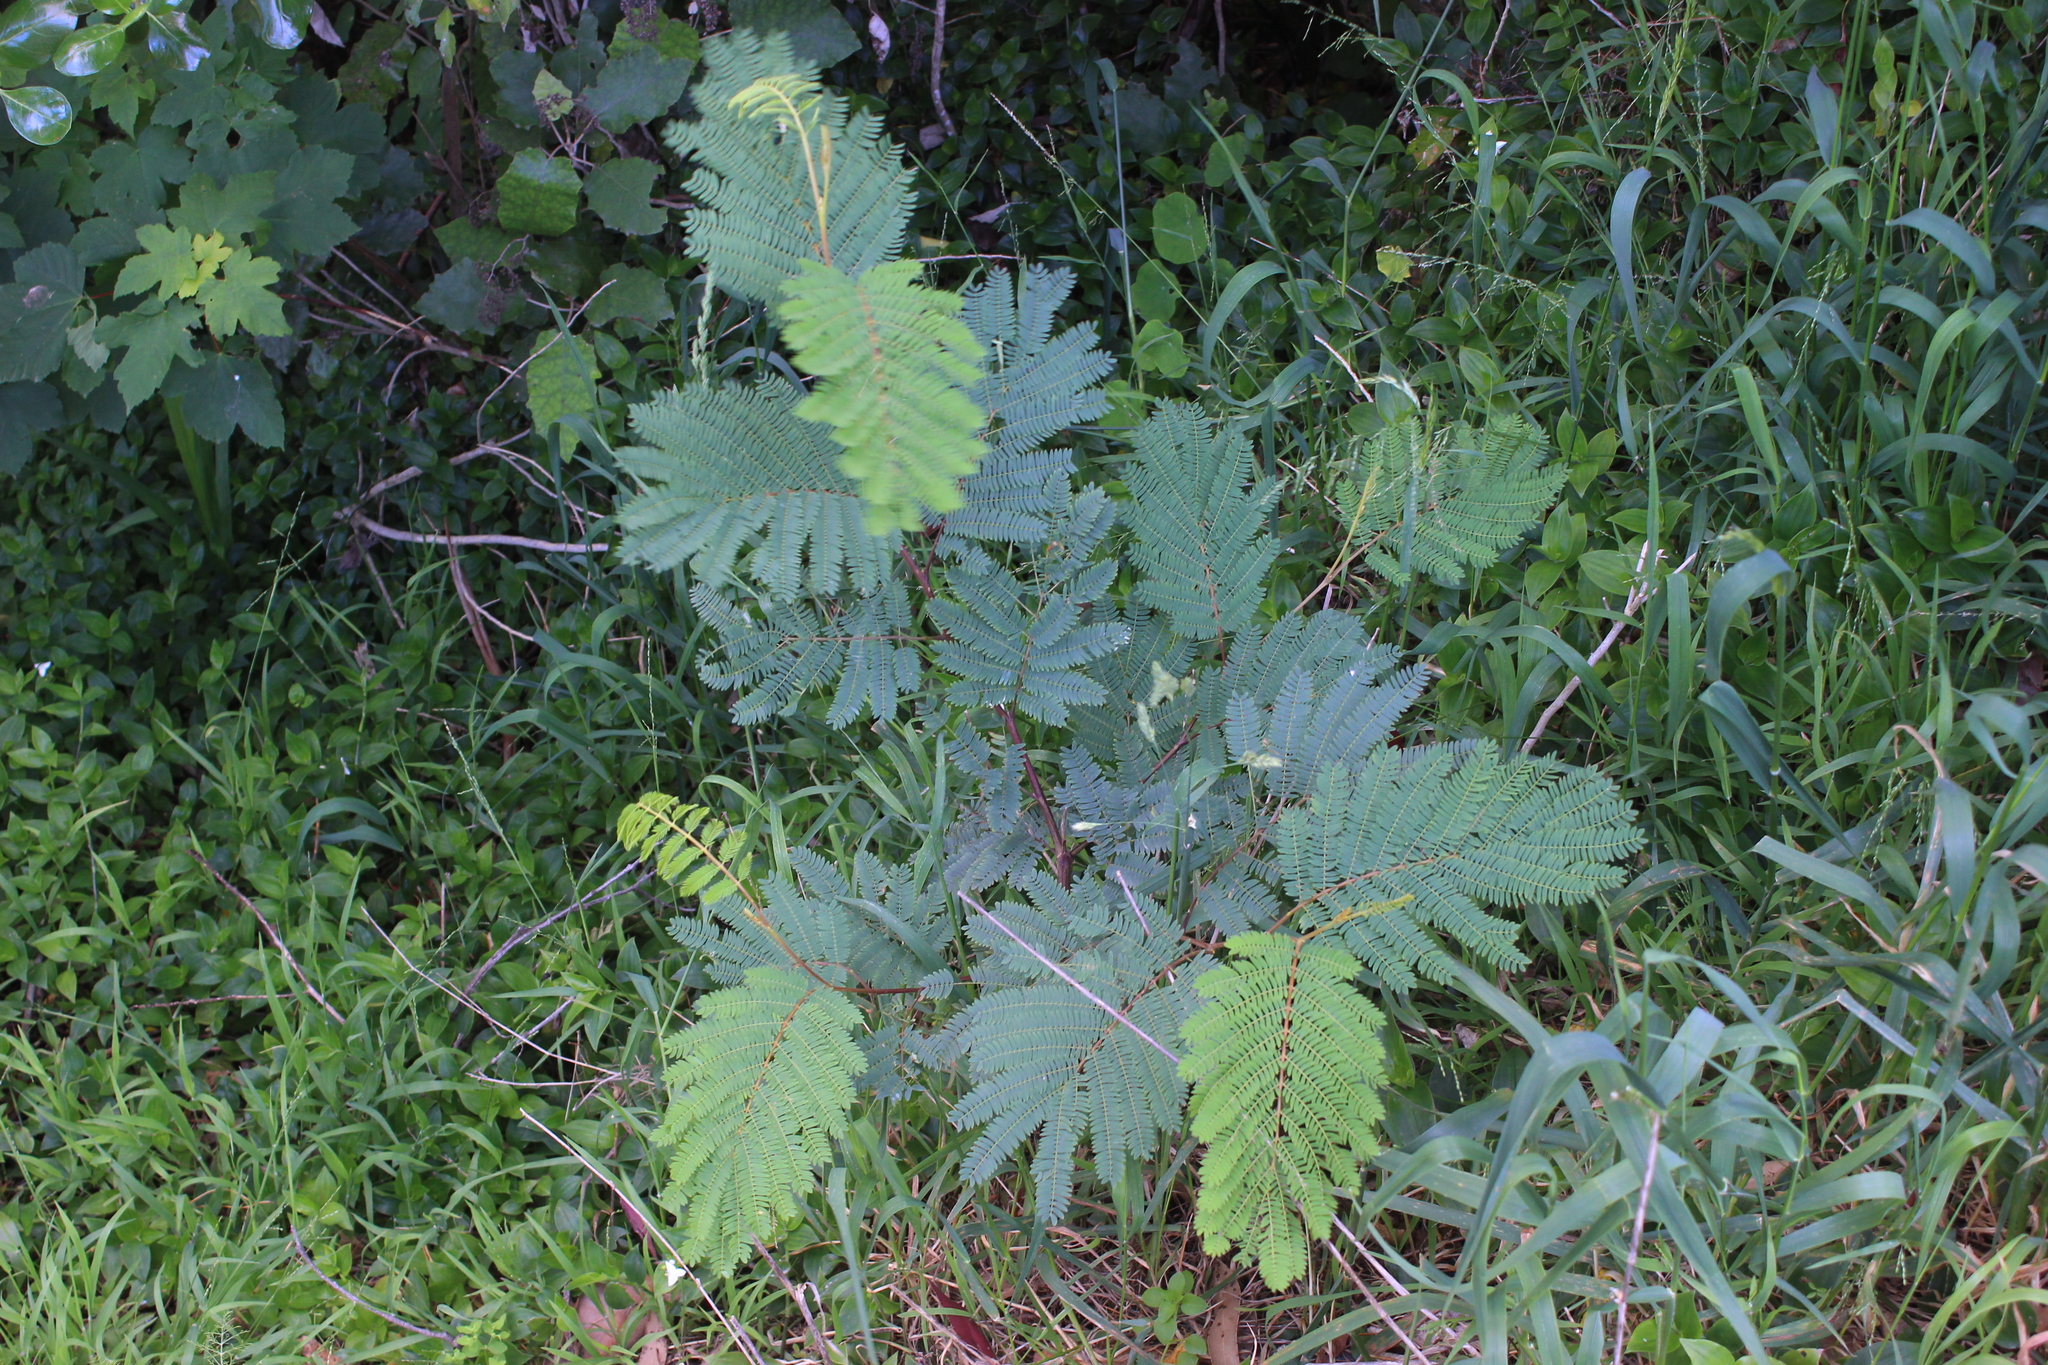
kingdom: Plantae
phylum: Tracheophyta
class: Magnoliopsida
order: Fabales
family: Fabaceae
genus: Paraserianthes
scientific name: Paraserianthes lophantha
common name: Plume albizia
